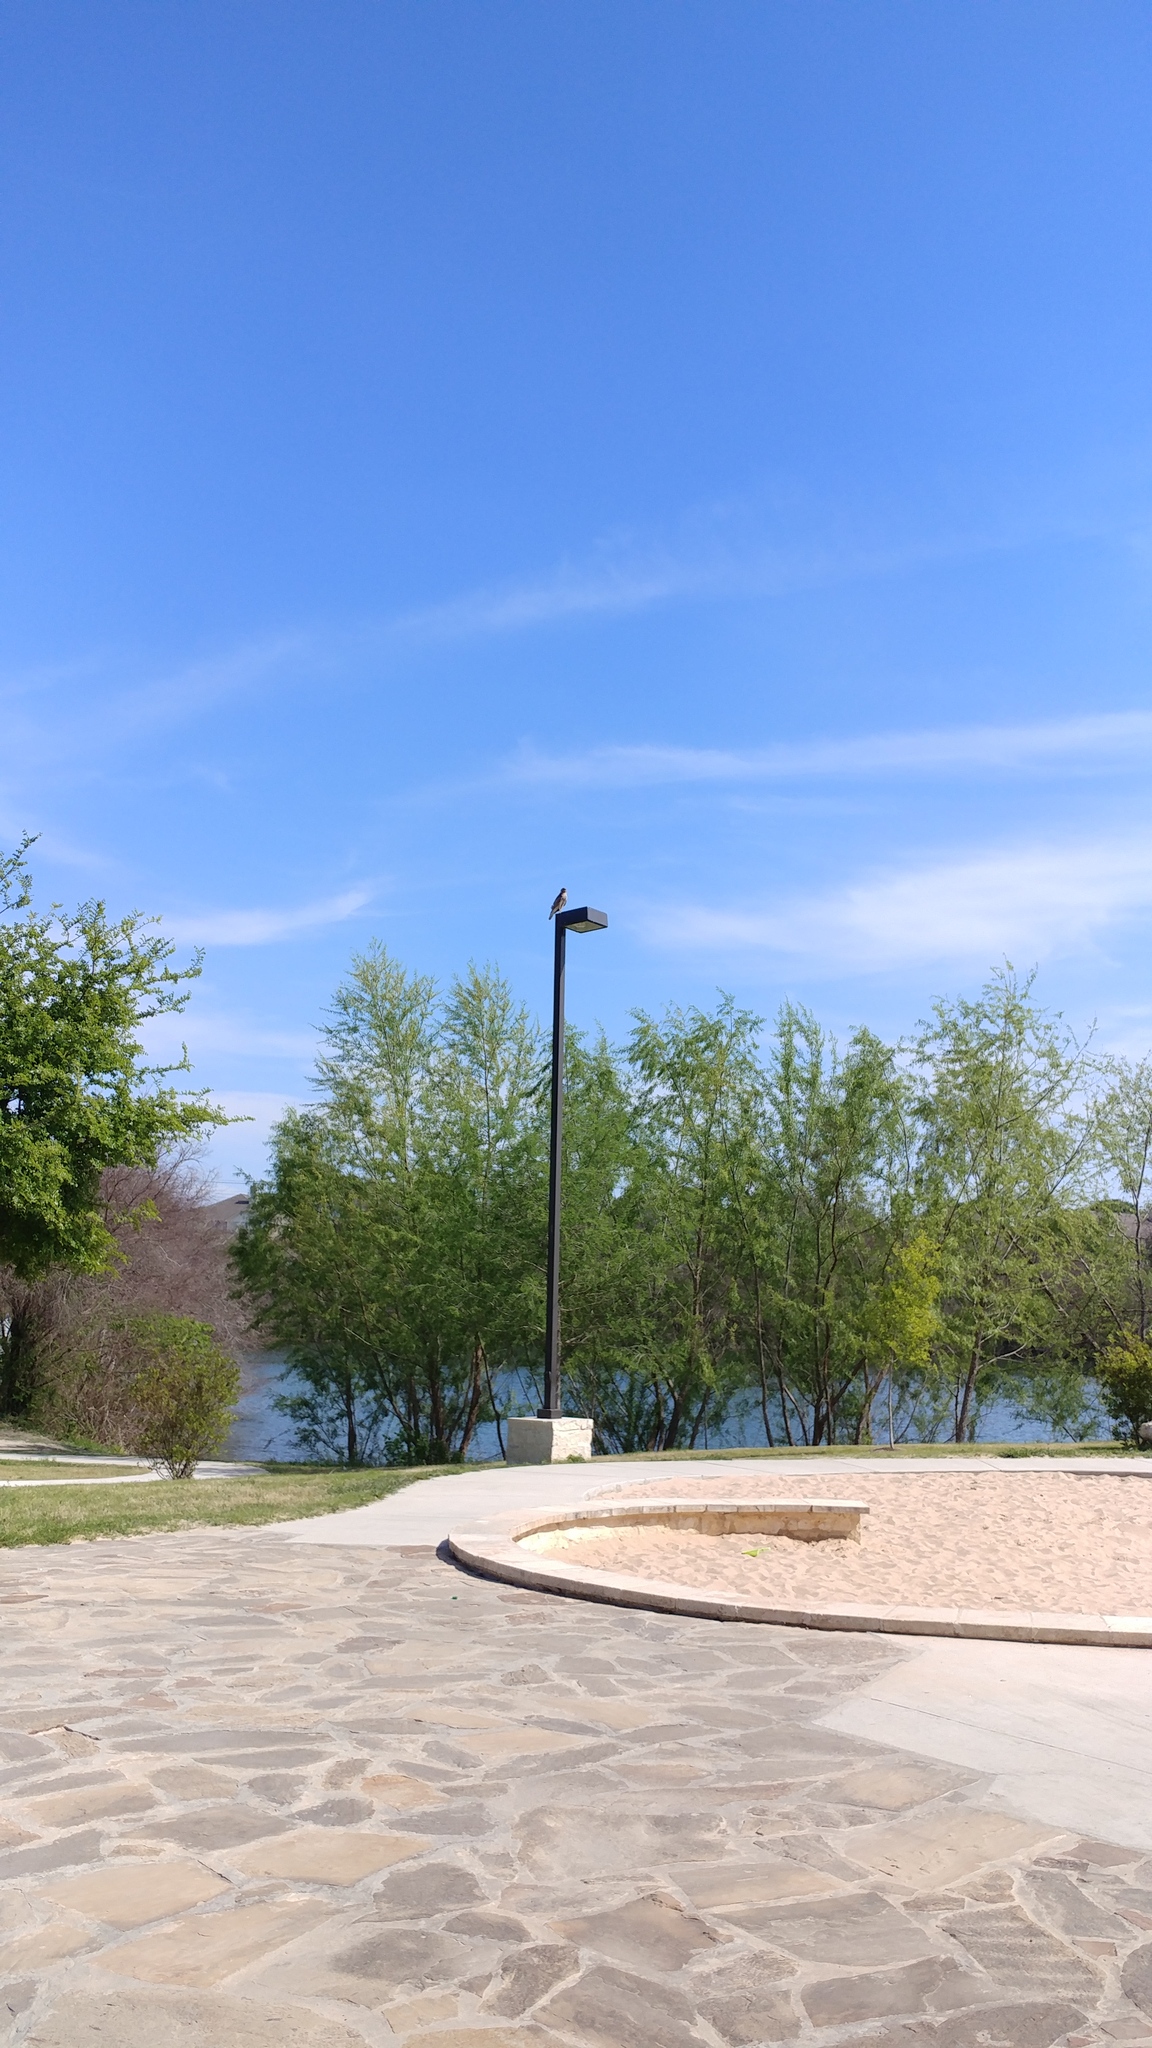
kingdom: Animalia
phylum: Chordata
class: Aves
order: Accipitriformes
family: Accipitridae
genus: Buteo
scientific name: Buteo lineatus
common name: Red-shouldered hawk
